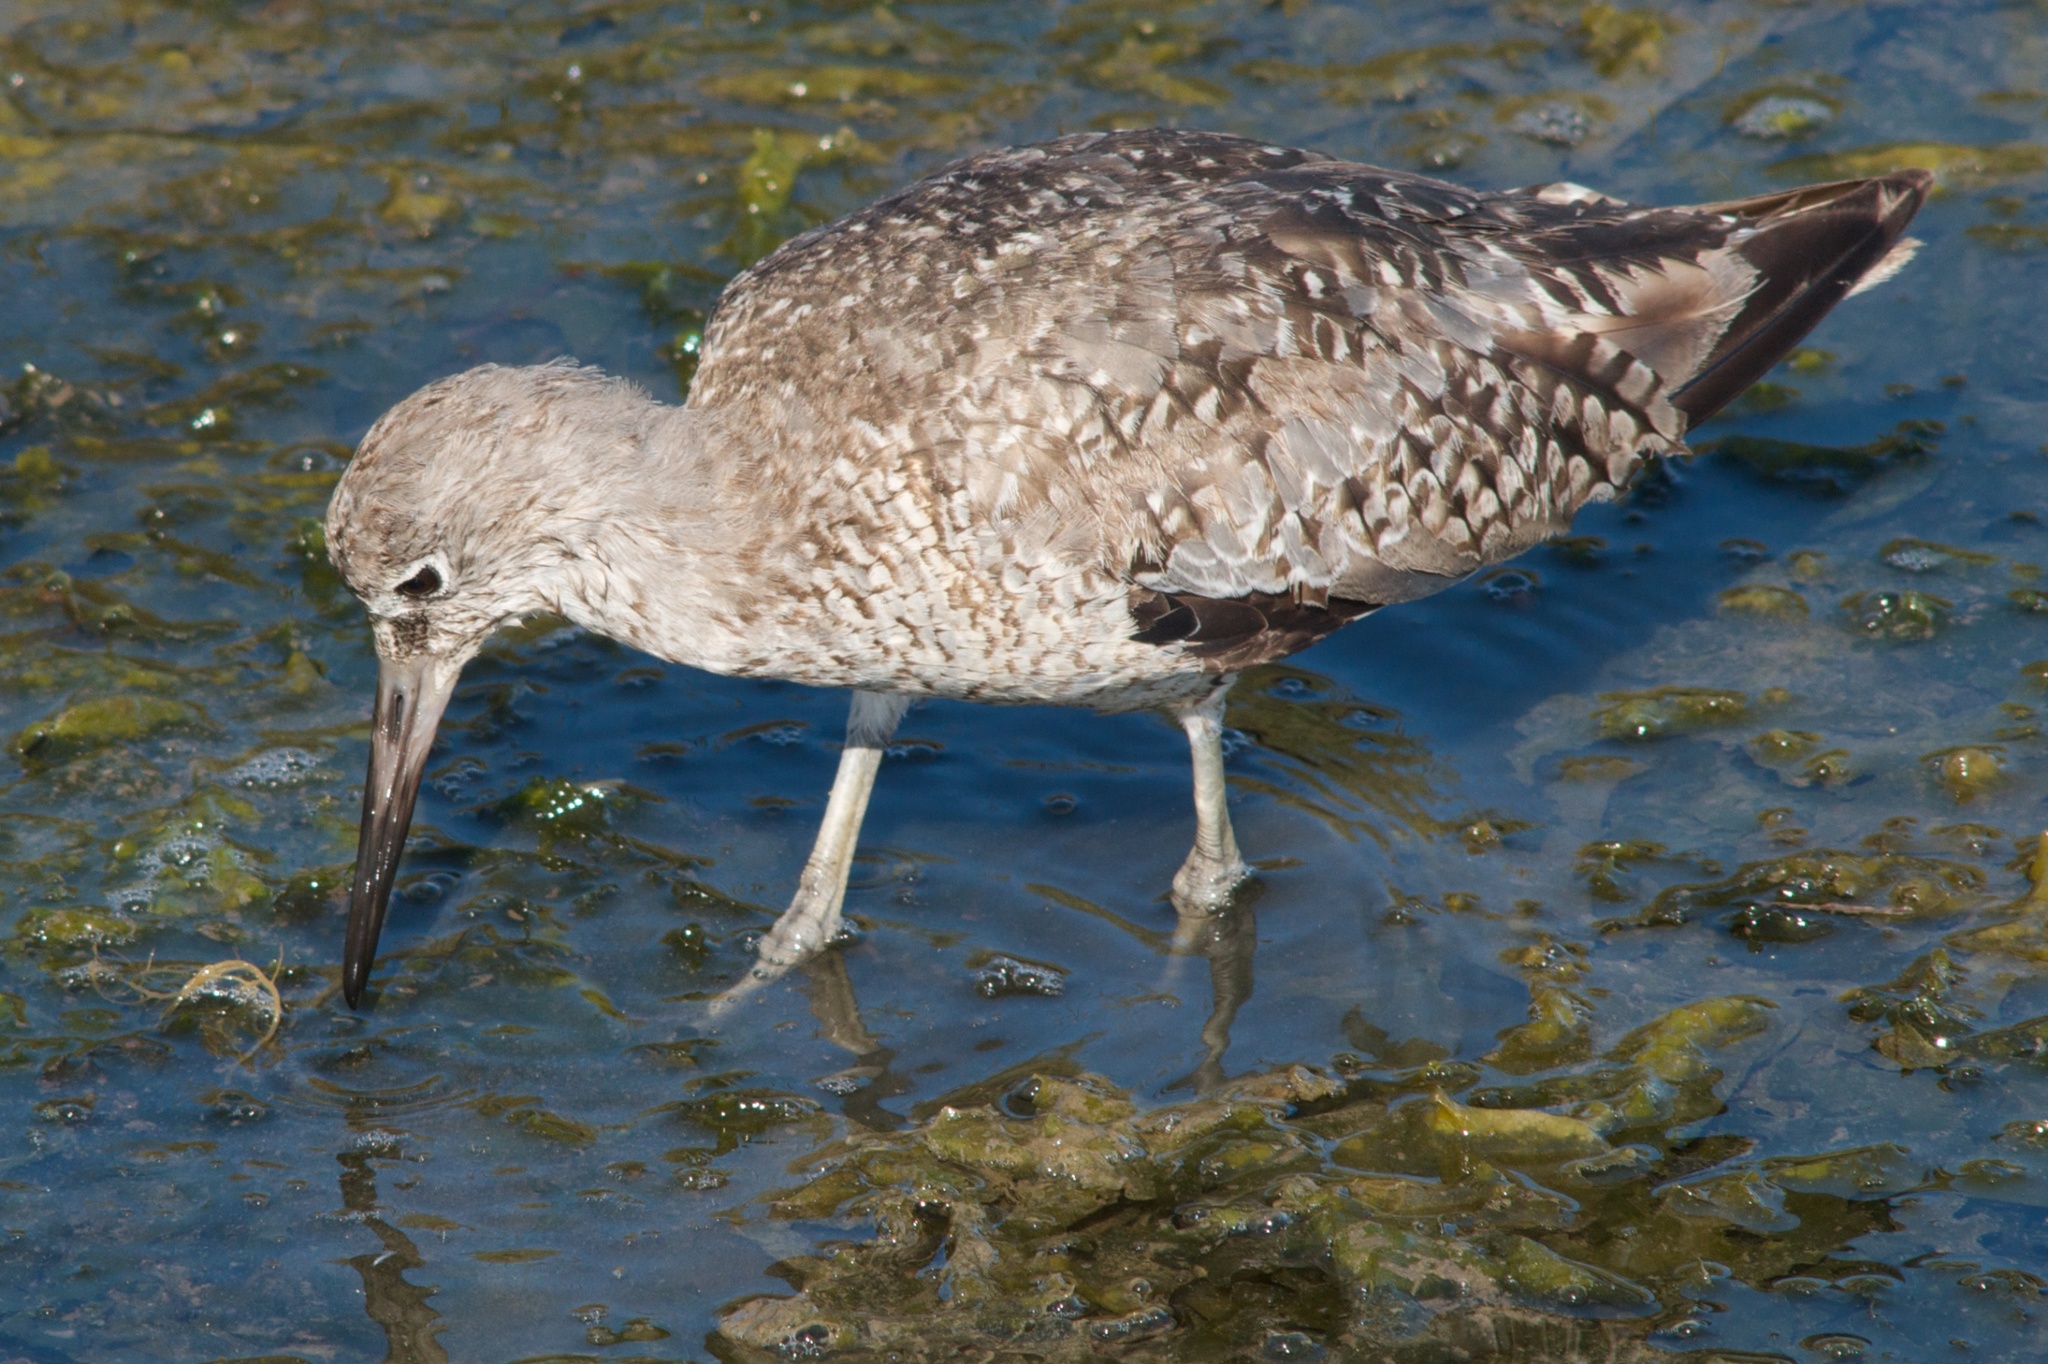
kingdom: Animalia
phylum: Chordata
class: Aves
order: Charadriiformes
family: Scolopacidae
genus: Tringa
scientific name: Tringa semipalmata
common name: Willet
